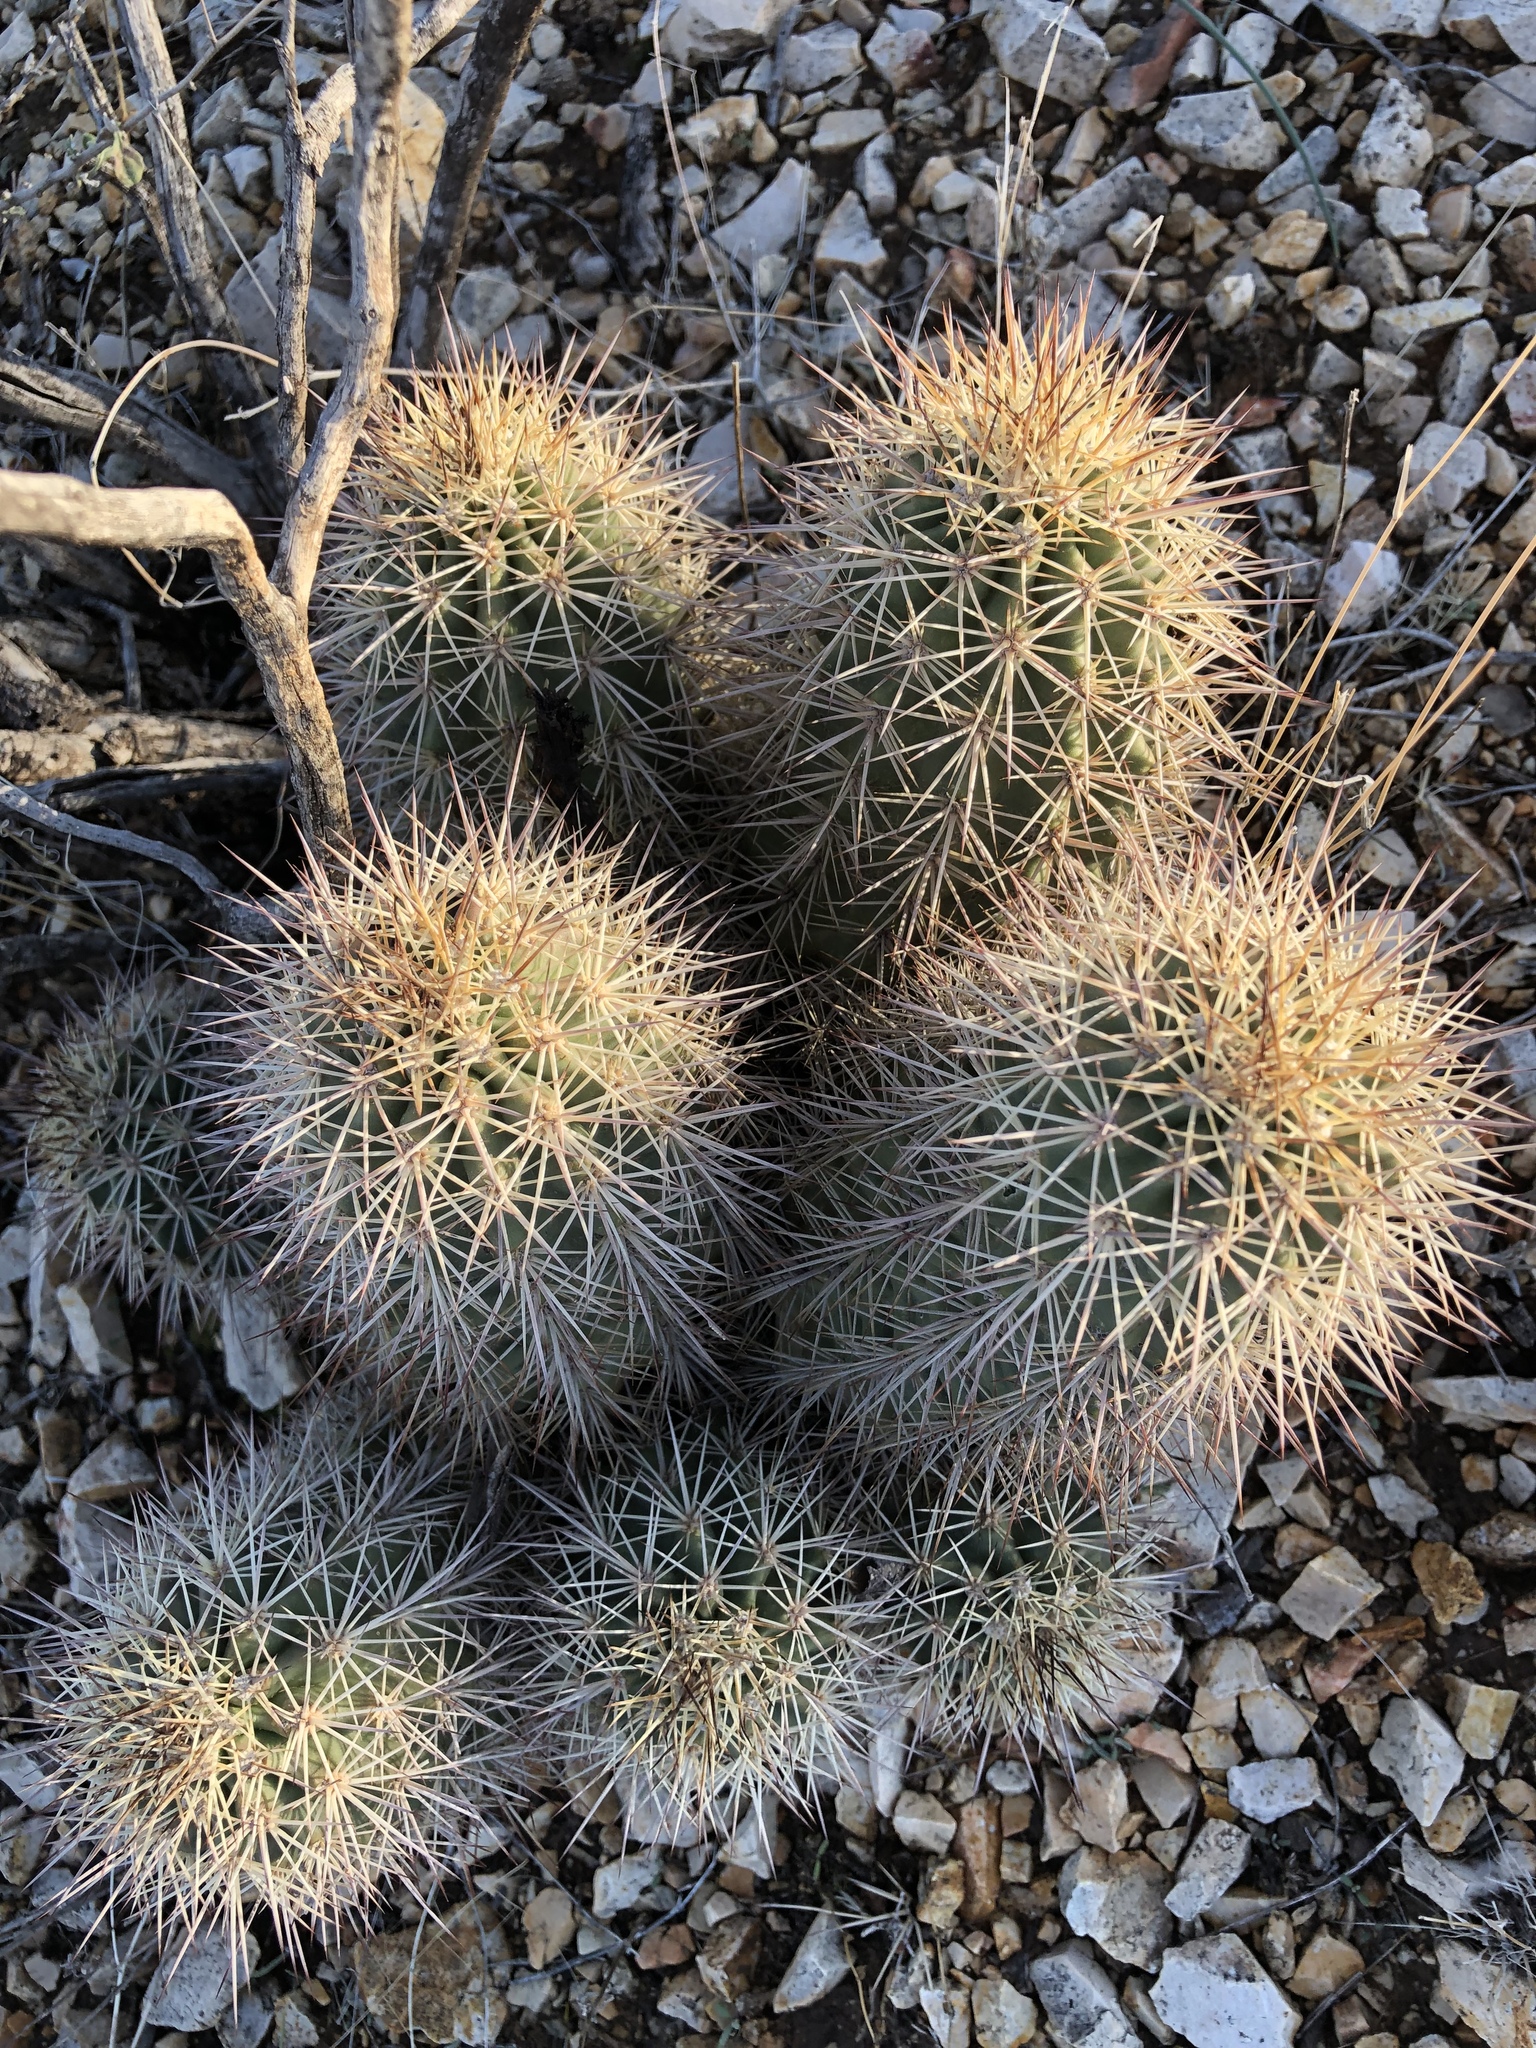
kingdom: Plantae
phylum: Tracheophyta
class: Magnoliopsida
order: Caryophyllales
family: Cactaceae
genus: Echinocereus
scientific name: Echinocereus coccineus
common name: Scarlet hedgehog cactus
